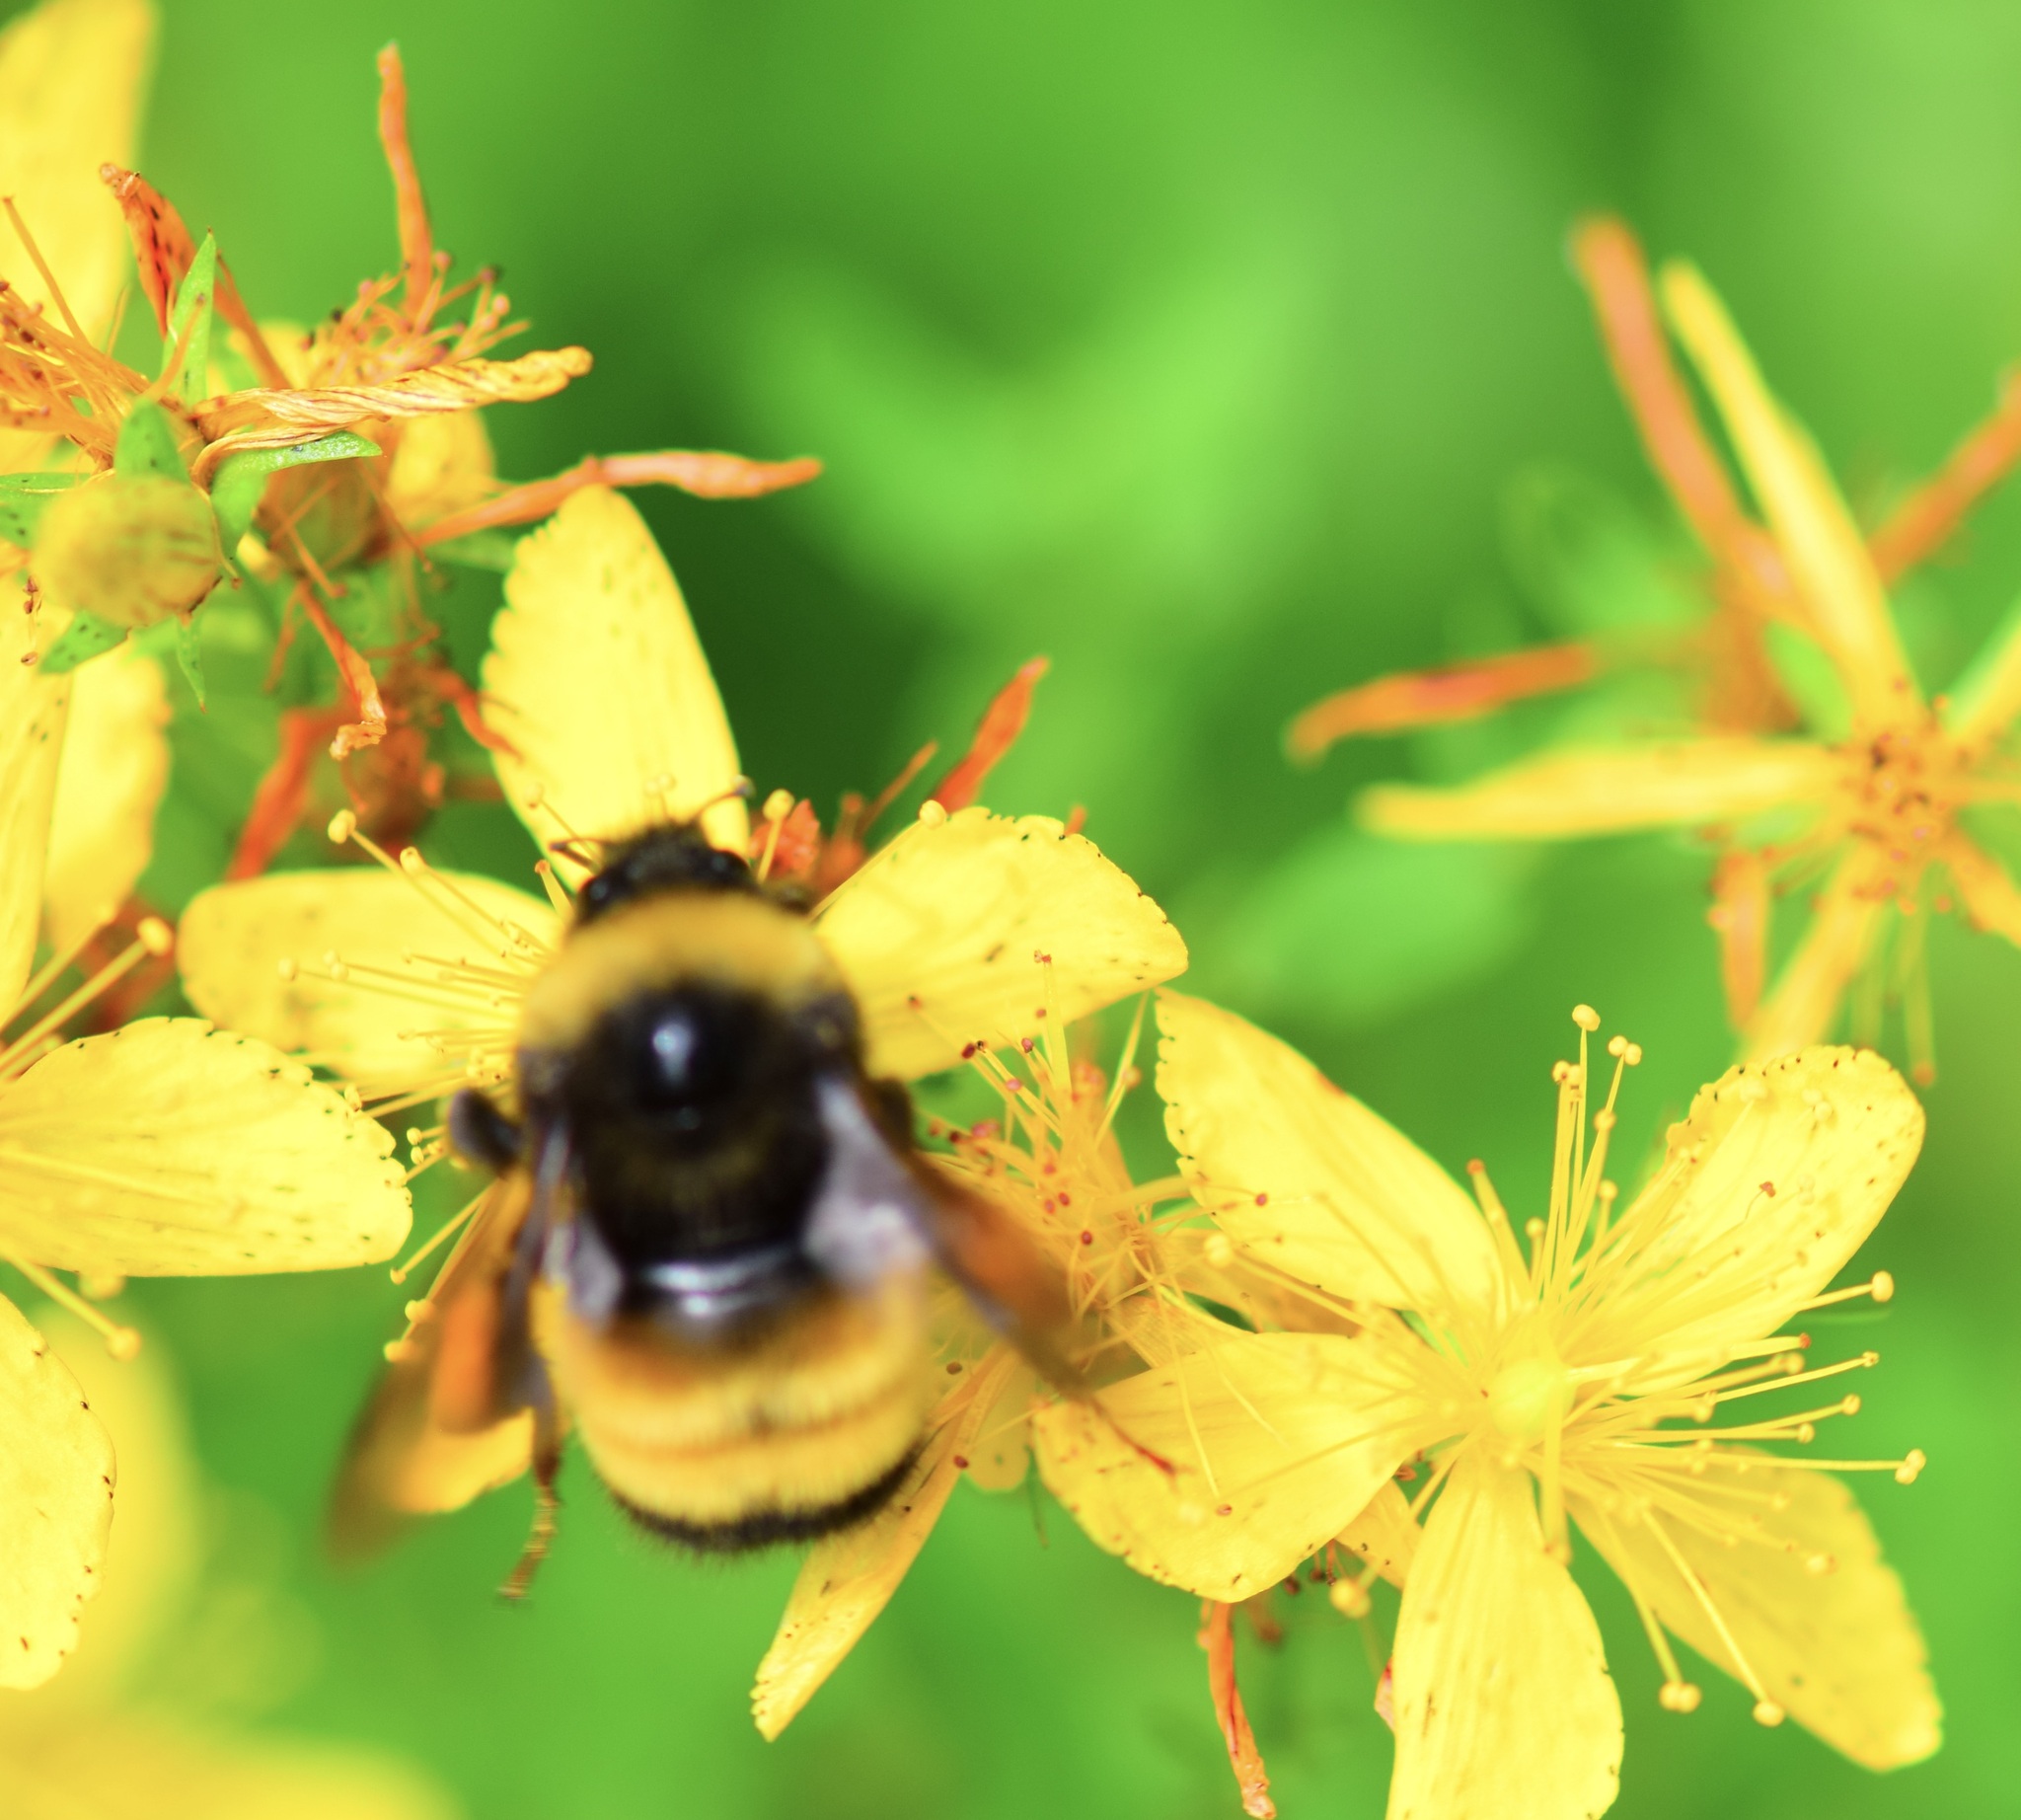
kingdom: Animalia
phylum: Arthropoda
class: Insecta
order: Hymenoptera
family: Apidae
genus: Bombus
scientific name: Bombus terricola
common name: Yellow-banded bumble bee
